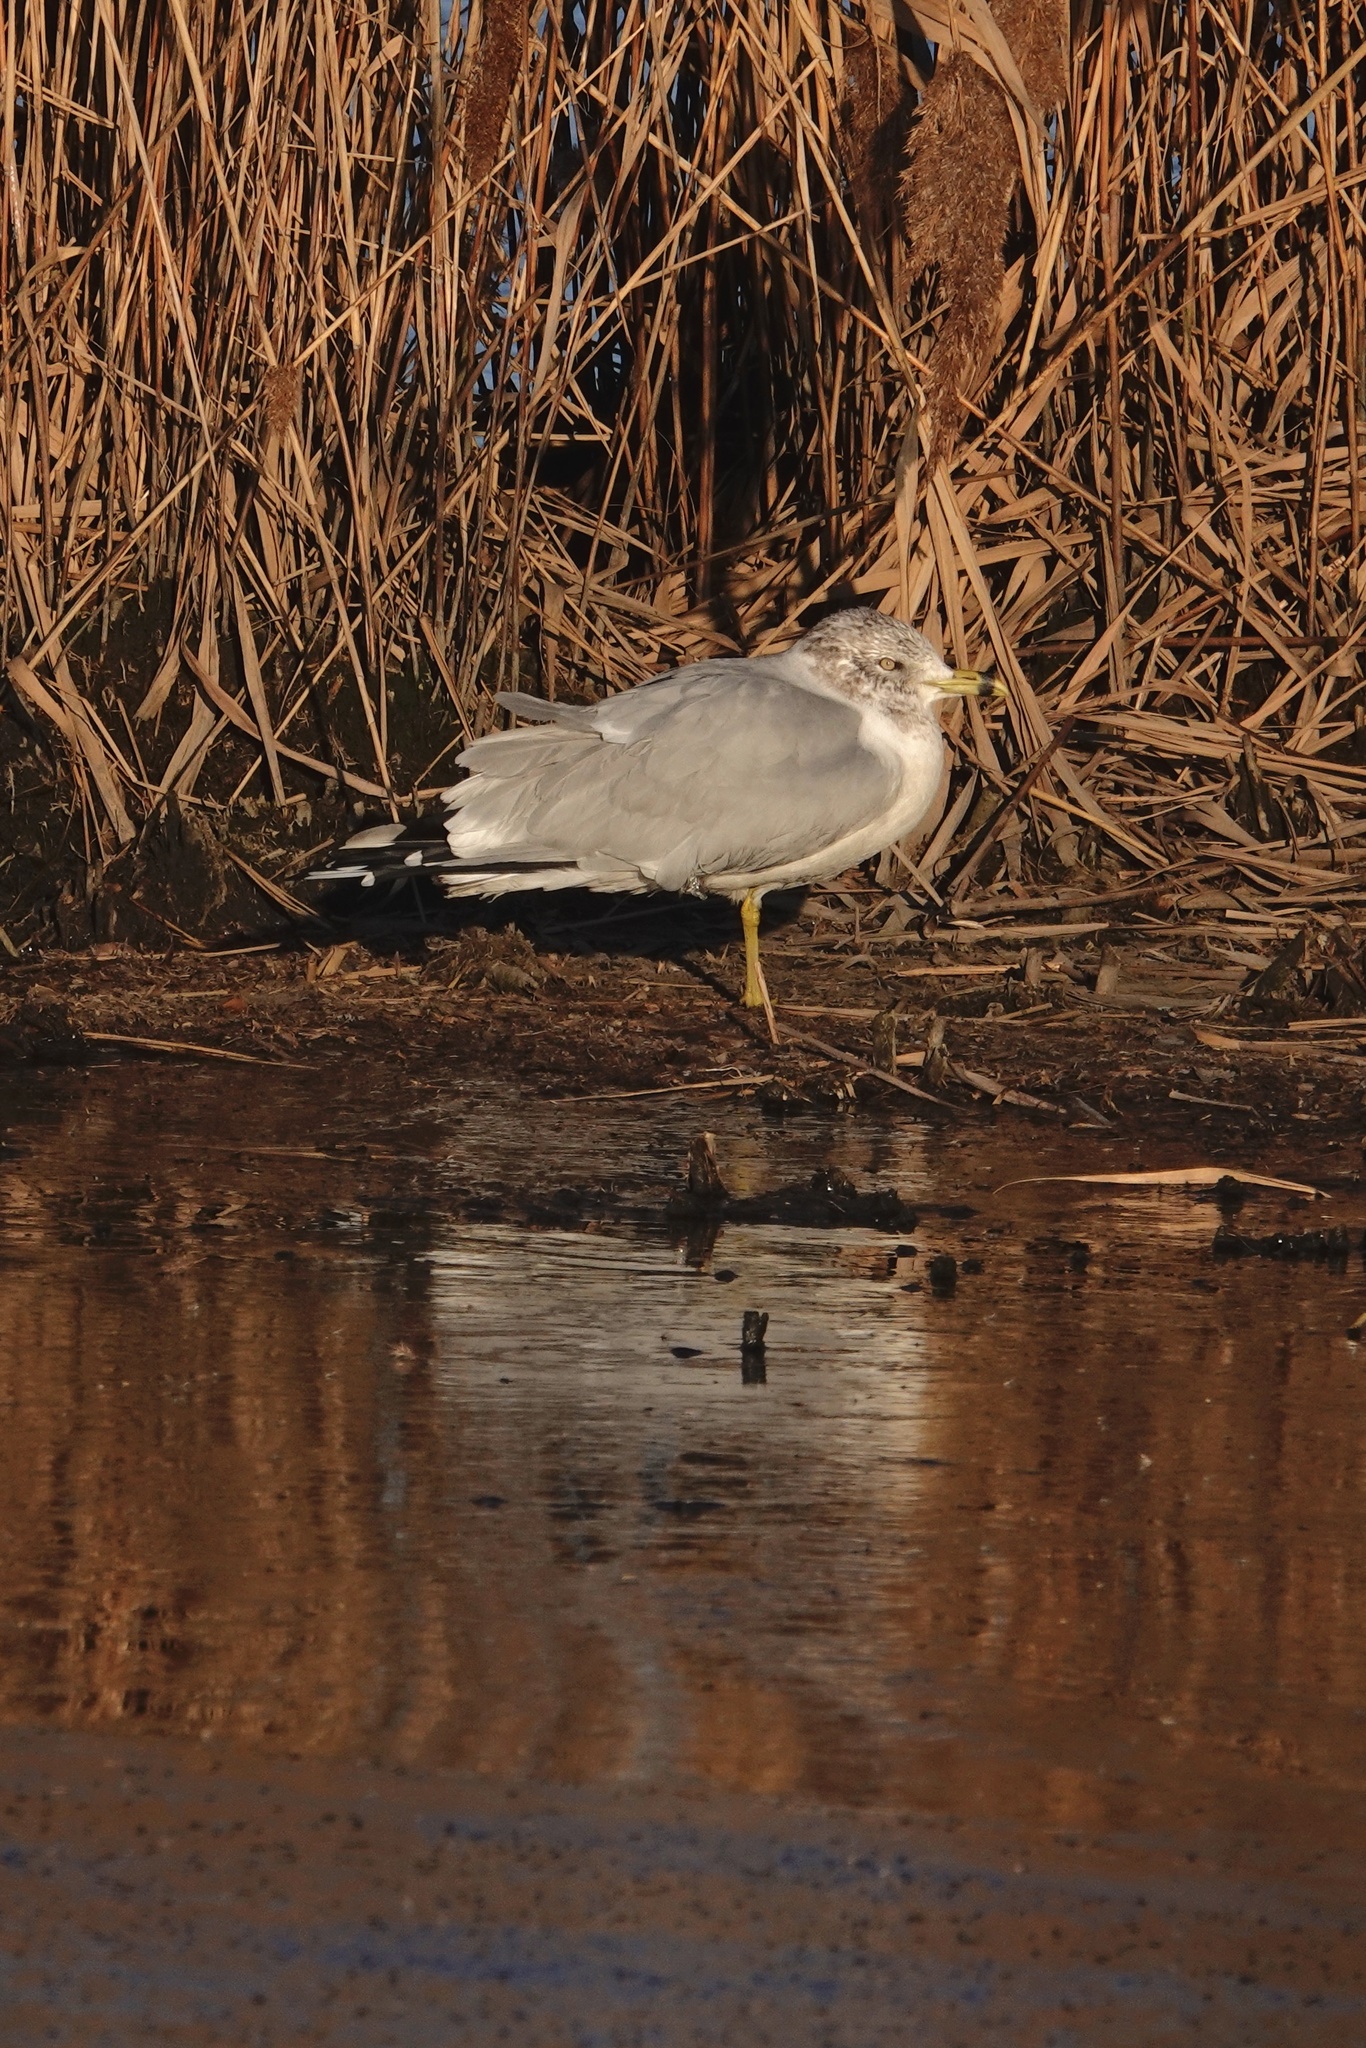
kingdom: Animalia
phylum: Chordata
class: Aves
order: Charadriiformes
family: Laridae
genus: Larus
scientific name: Larus delawarensis
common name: Ring-billed gull
